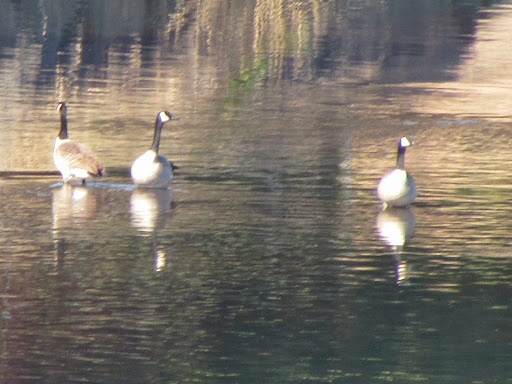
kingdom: Animalia
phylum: Chordata
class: Aves
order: Anseriformes
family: Anatidae
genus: Branta
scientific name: Branta canadensis
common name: Canada goose
